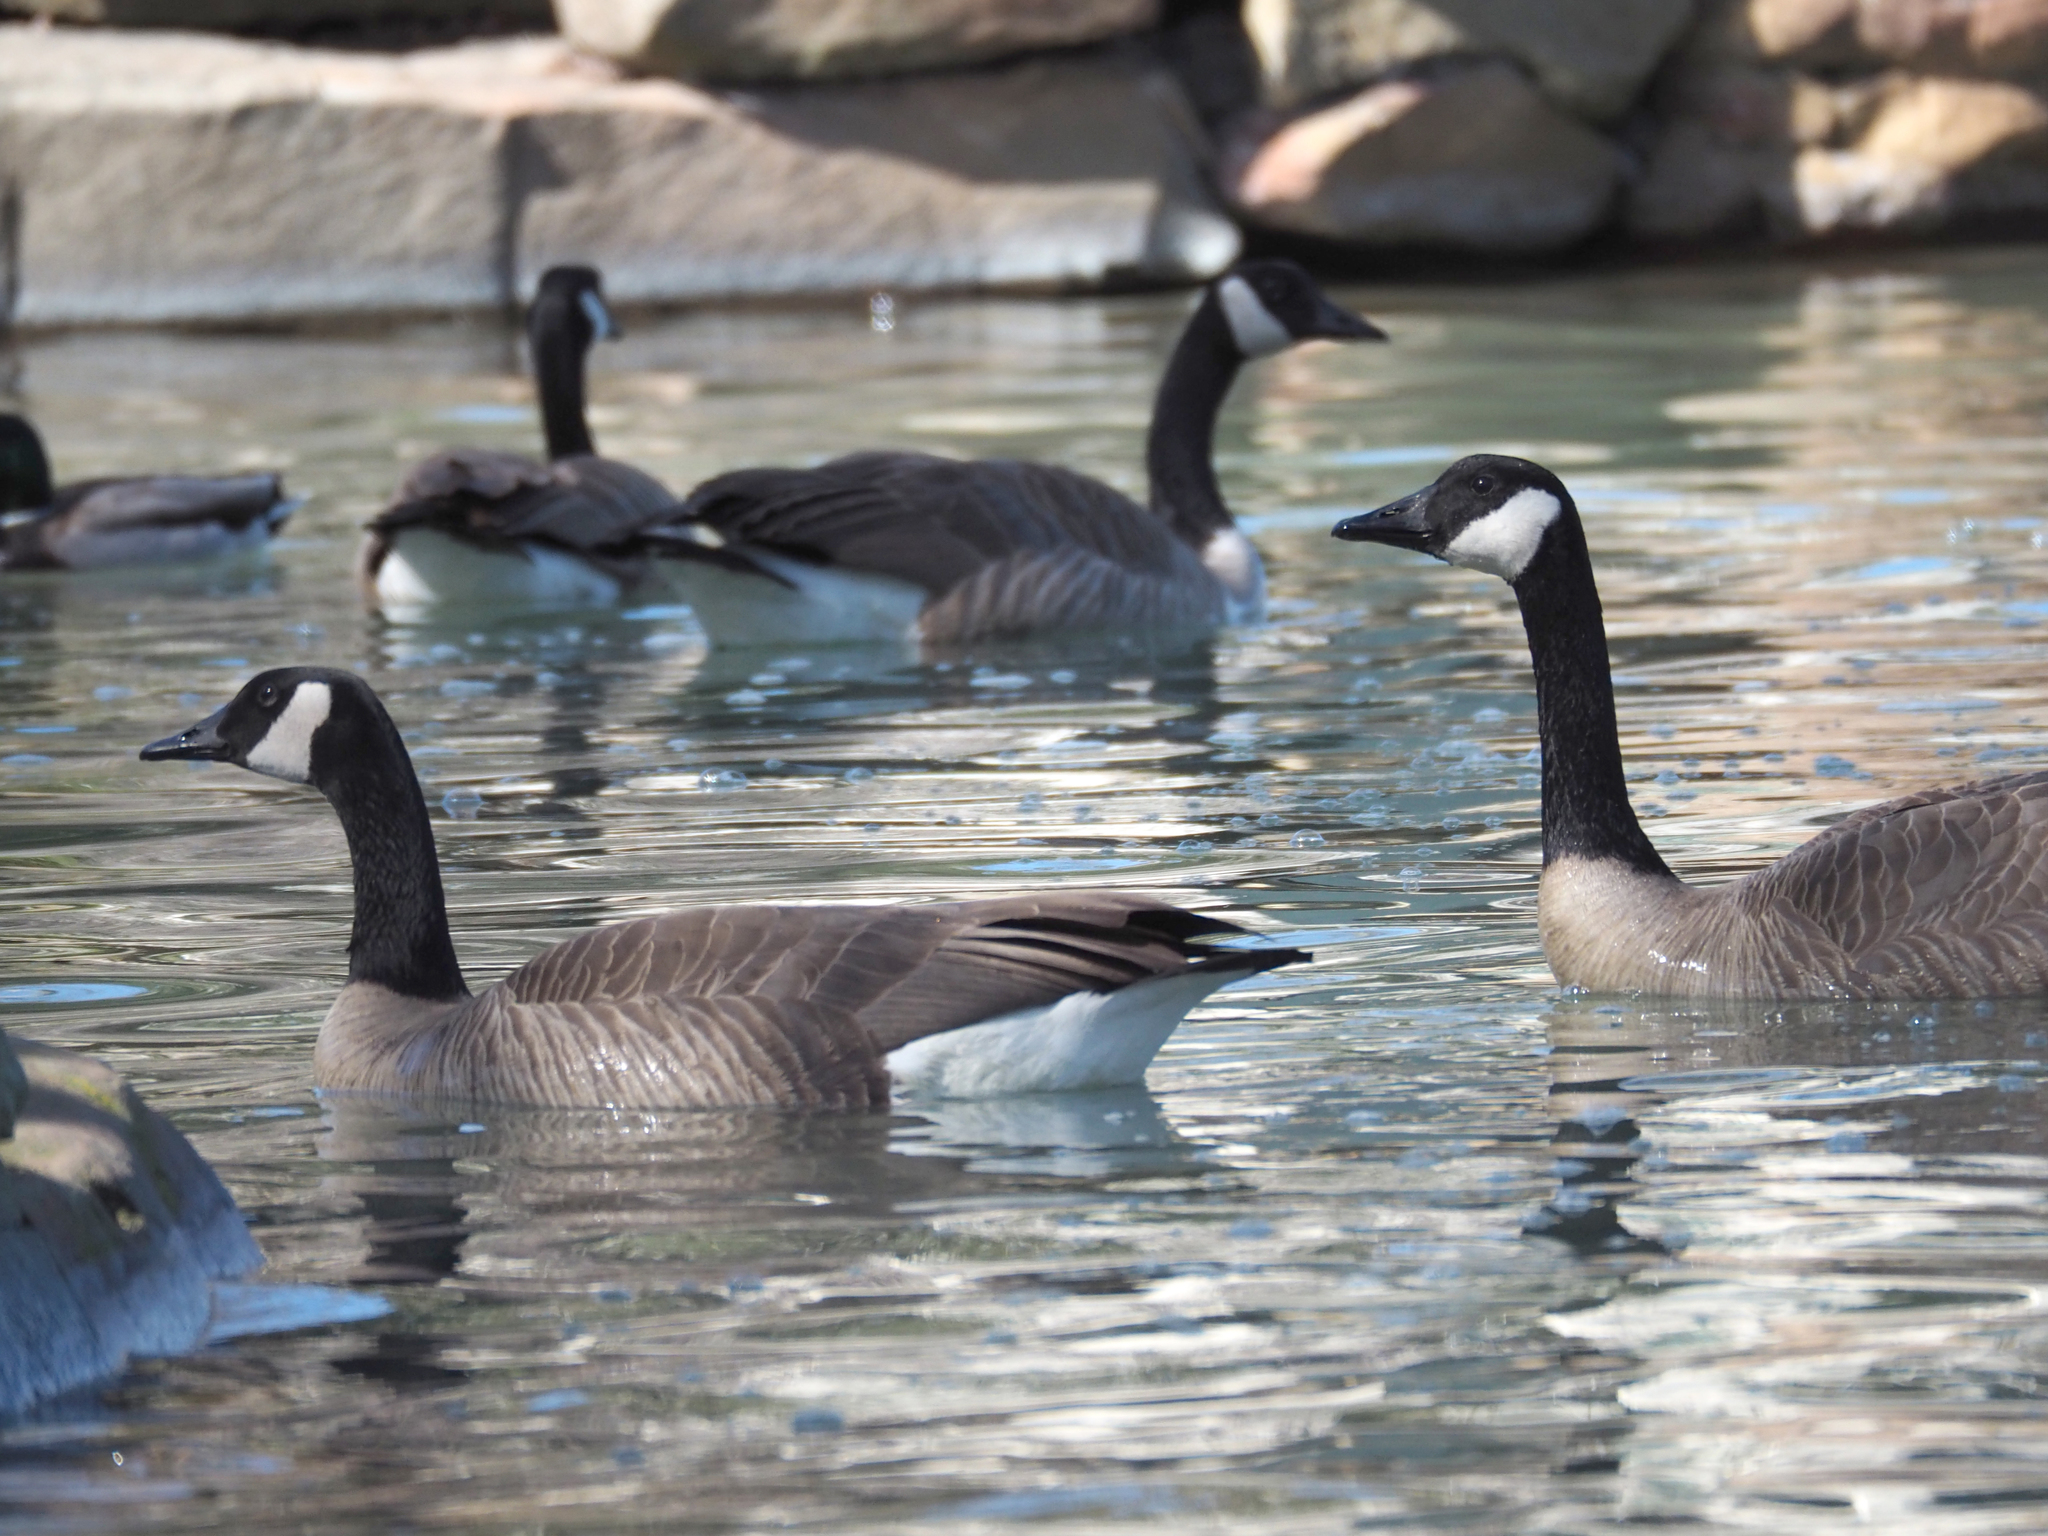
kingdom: Animalia
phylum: Chordata
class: Aves
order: Anseriformes
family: Anatidae
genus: Branta
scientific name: Branta canadensis
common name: Canada goose
